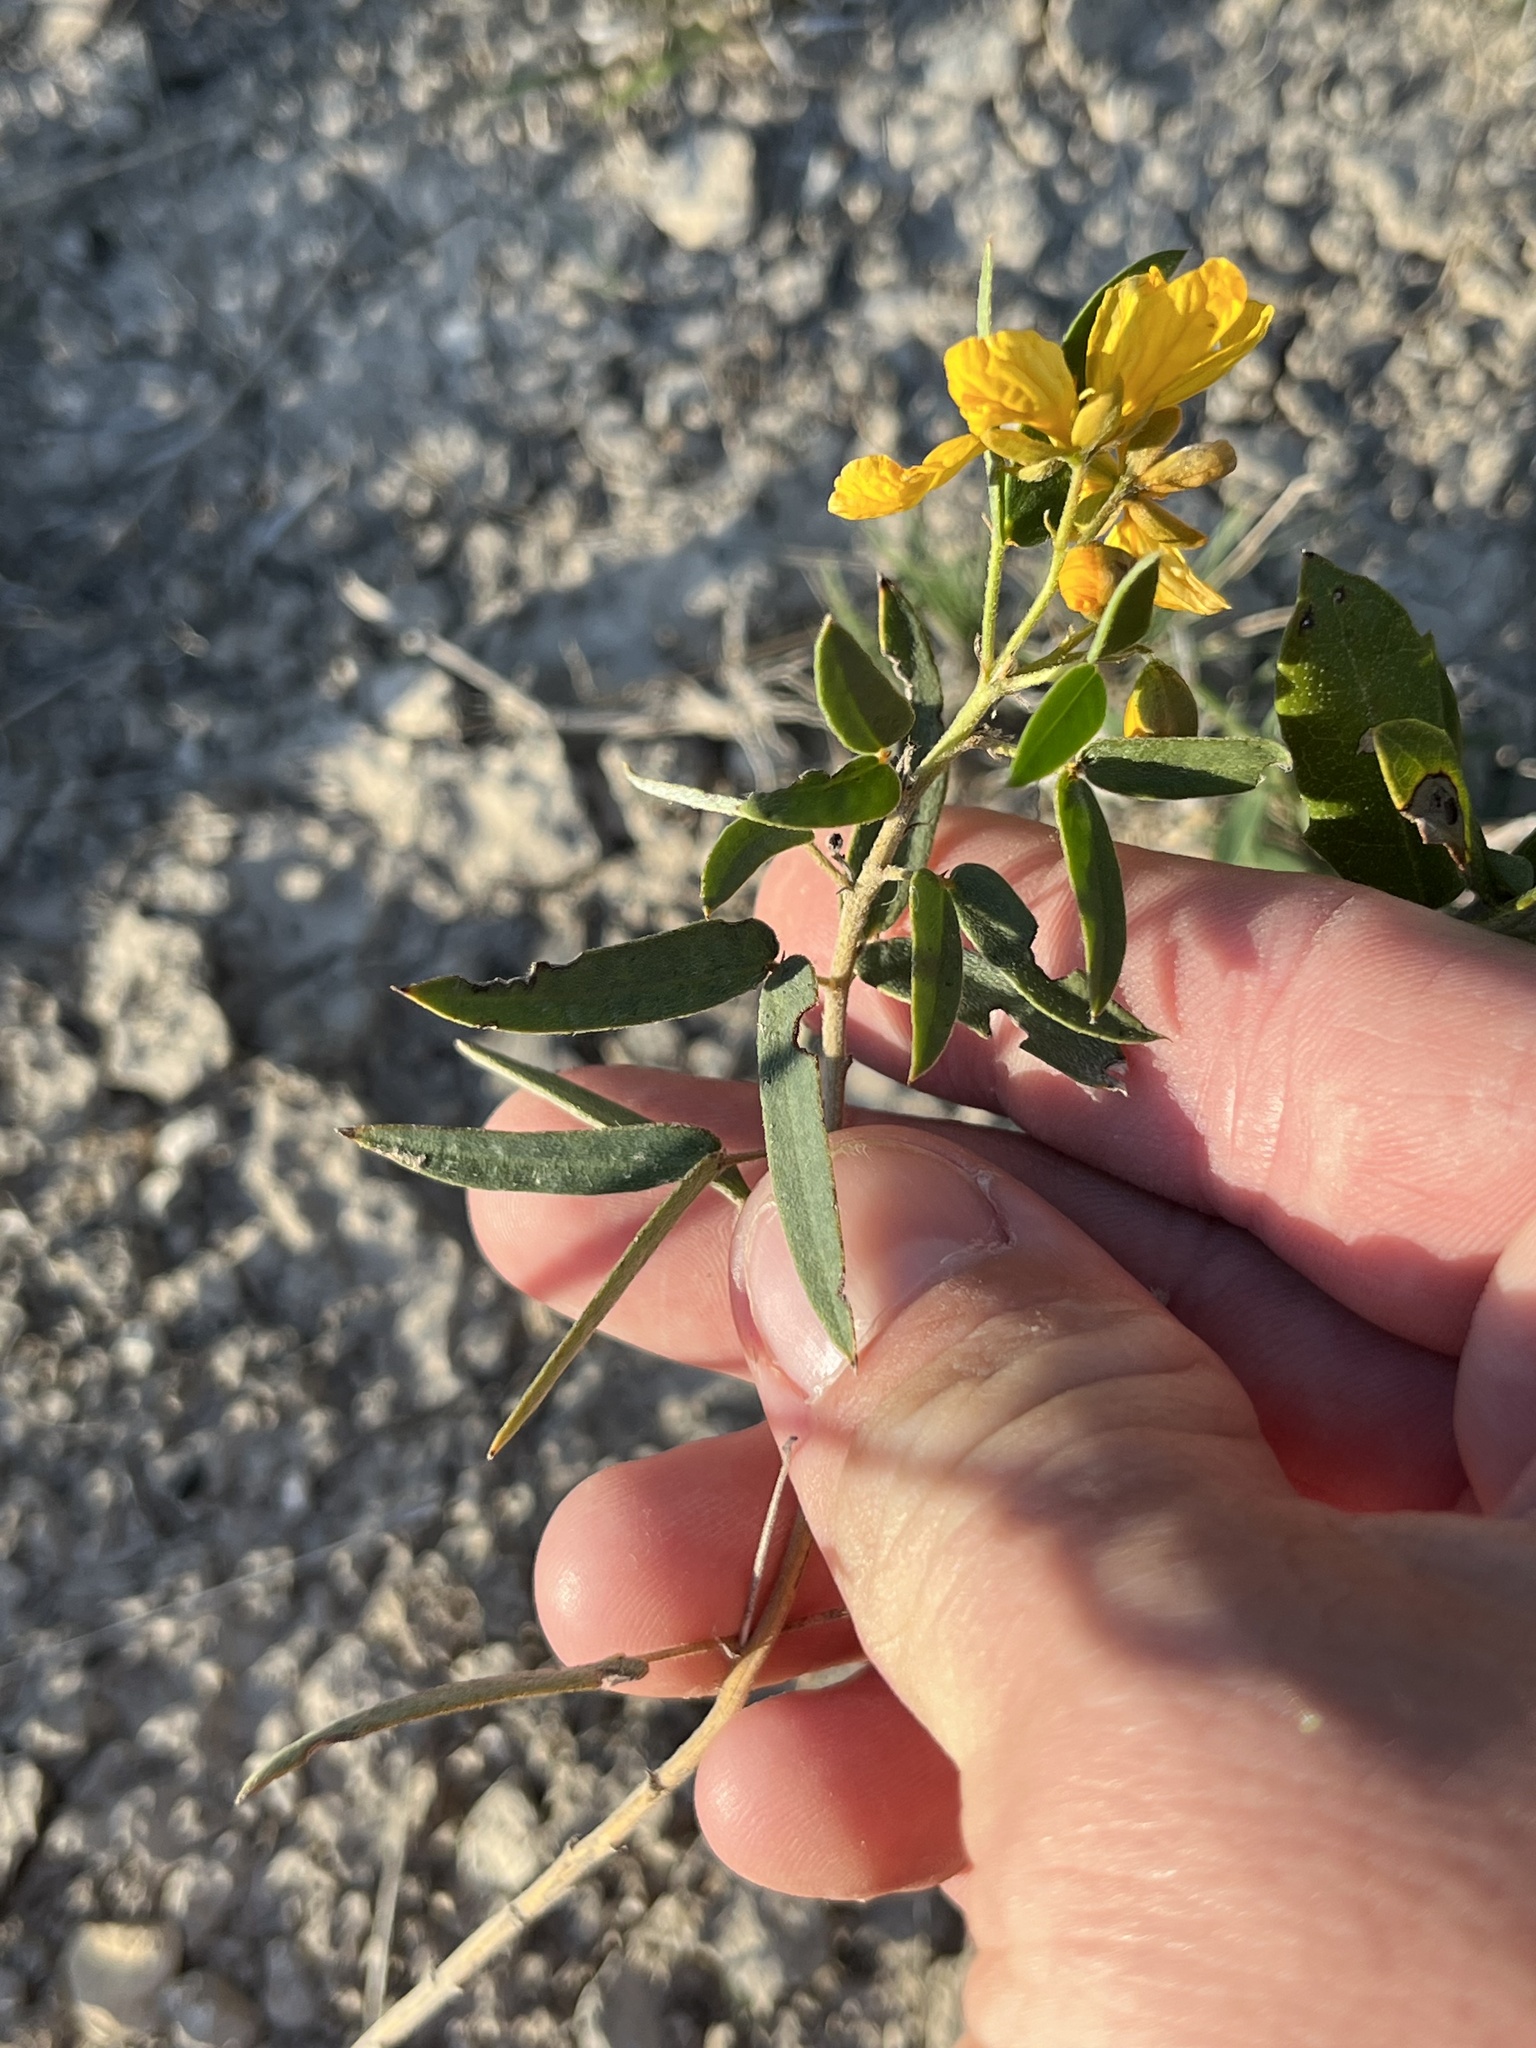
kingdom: Plantae
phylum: Tracheophyta
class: Magnoliopsida
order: Fabales
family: Fabaceae
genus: Senna
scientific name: Senna roemeriana
